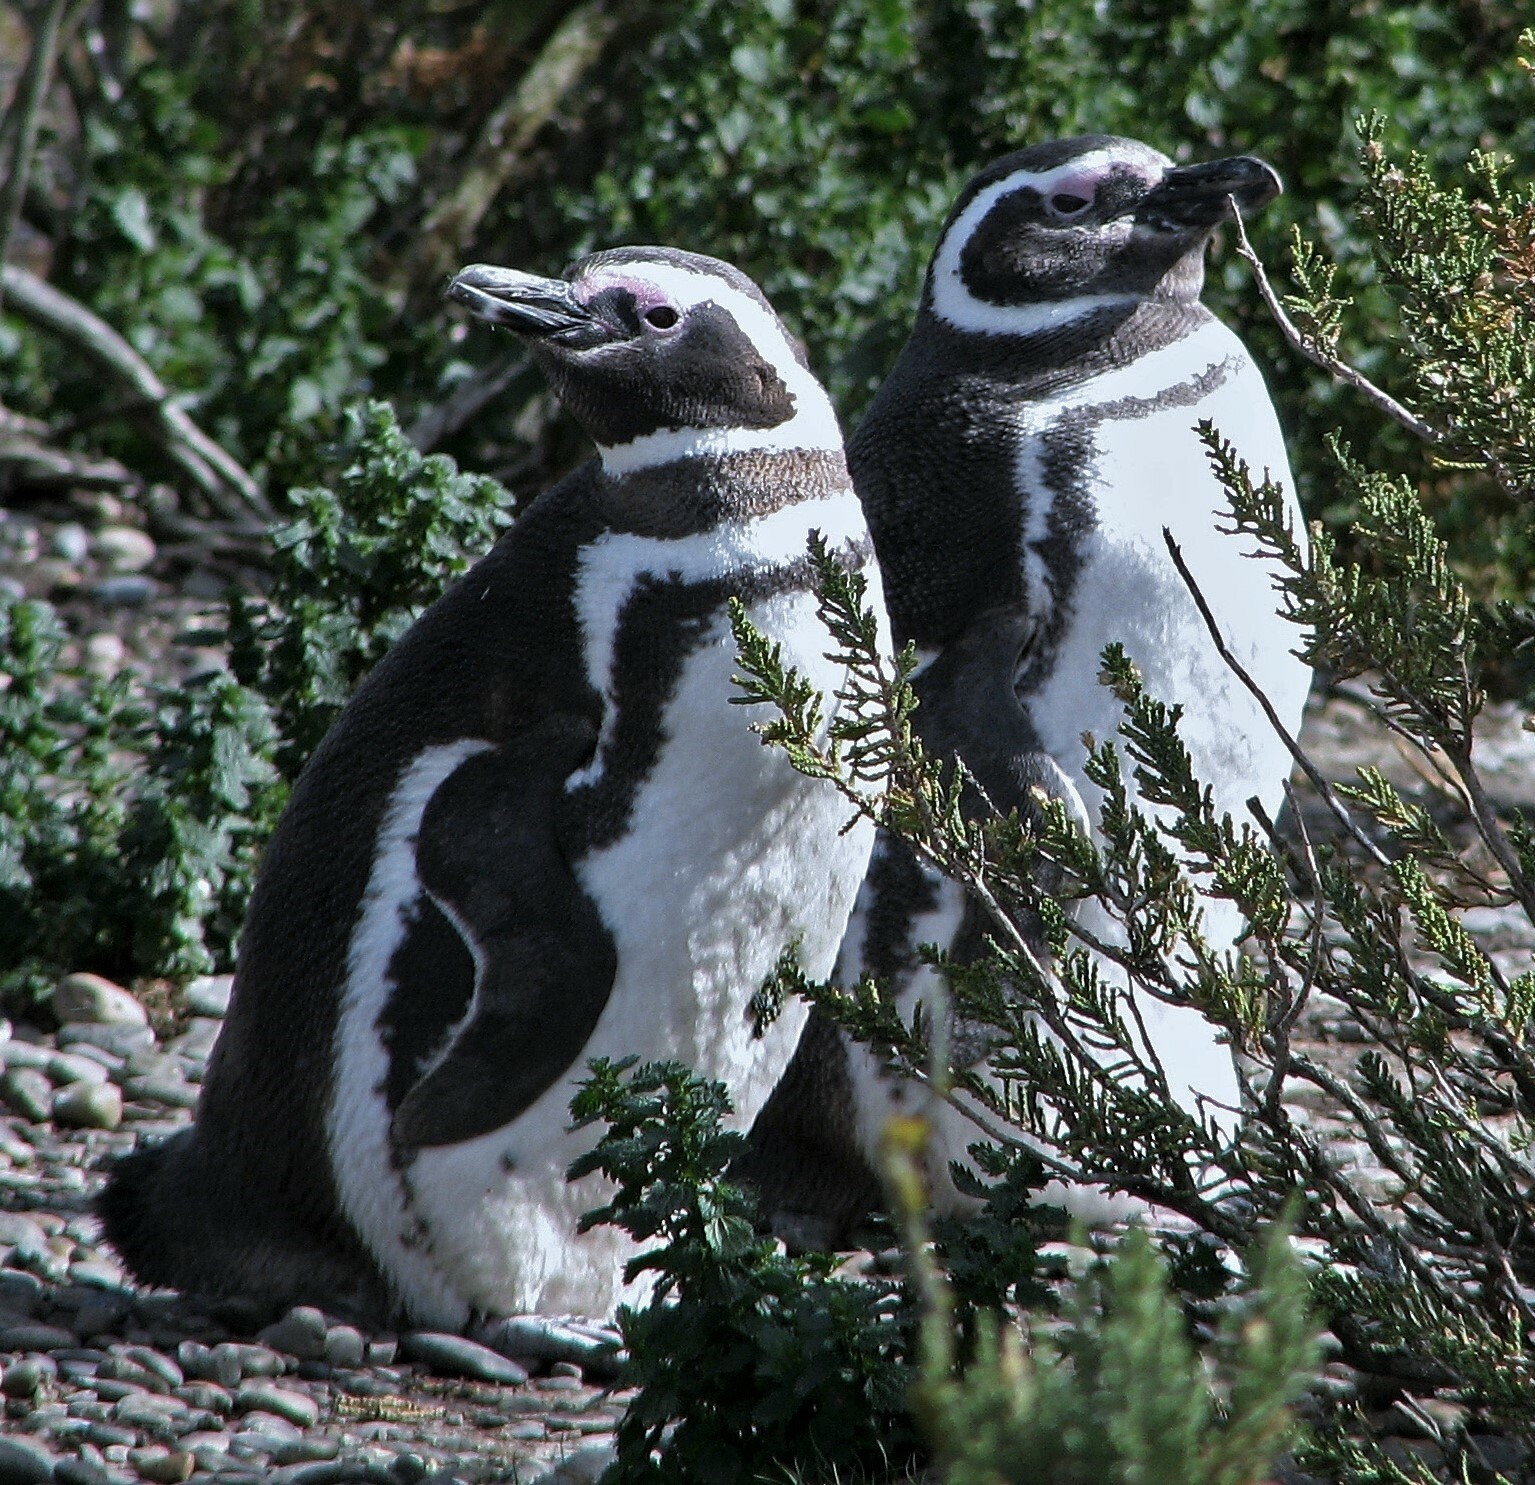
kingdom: Animalia
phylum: Chordata
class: Aves
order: Sphenisciformes
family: Spheniscidae
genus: Spheniscus
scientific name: Spheniscus magellanicus
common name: Magellanic penguin
